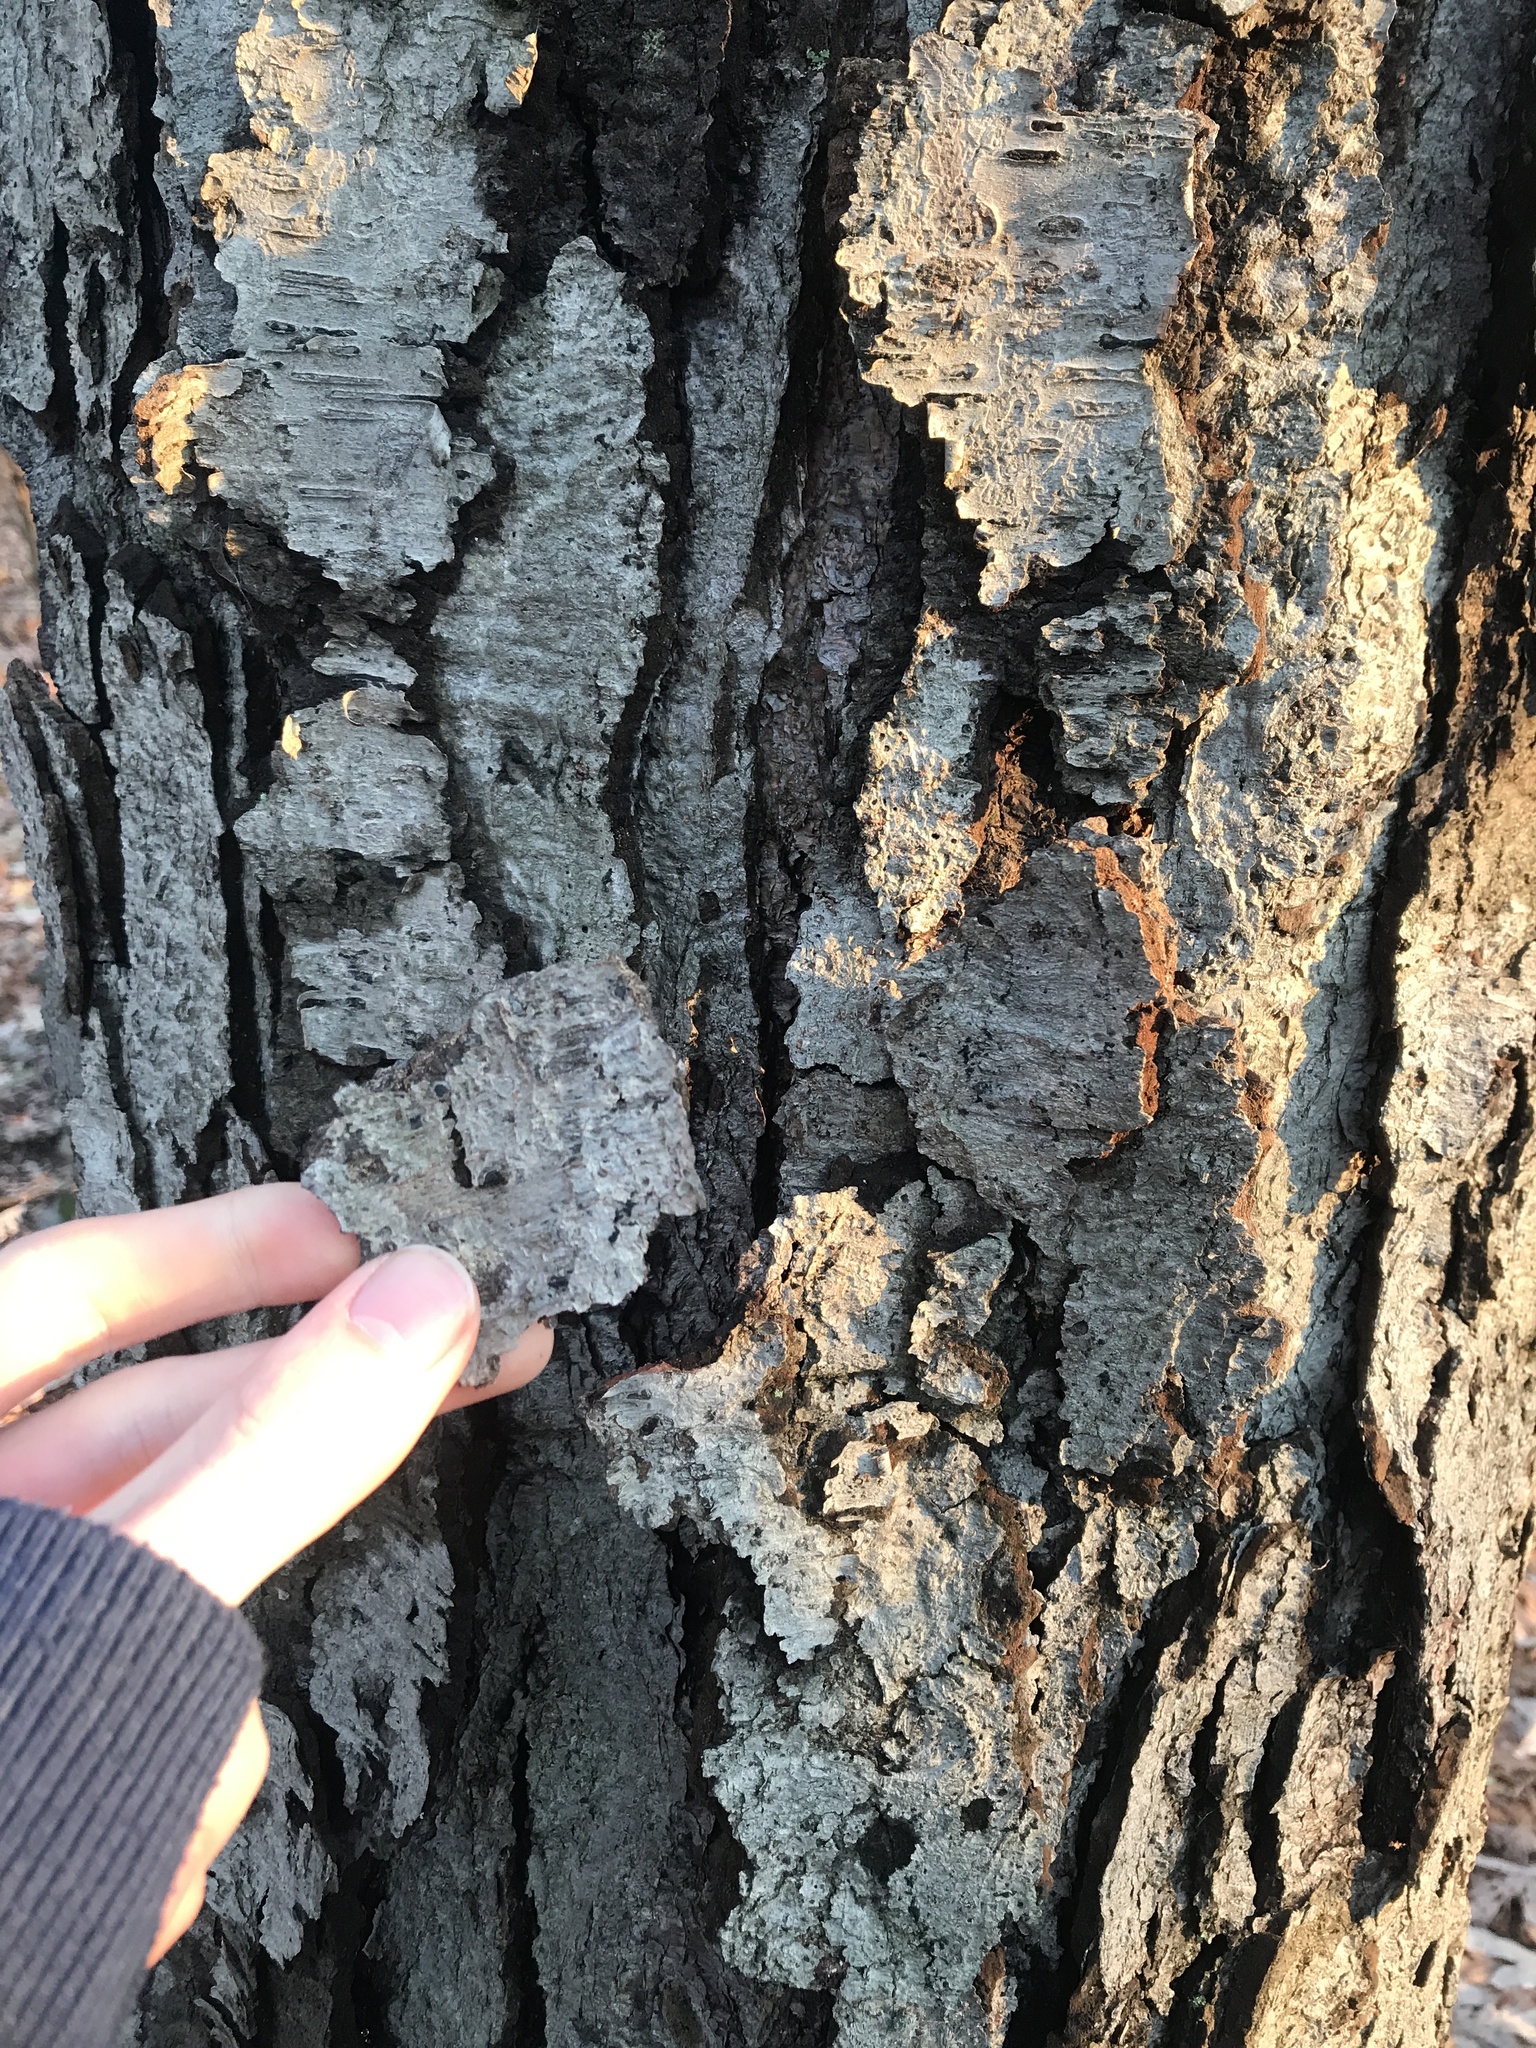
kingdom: Plantae
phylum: Tracheophyta
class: Magnoliopsida
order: Fagales
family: Betulaceae
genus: Betula
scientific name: Betula lenta
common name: Black birch
